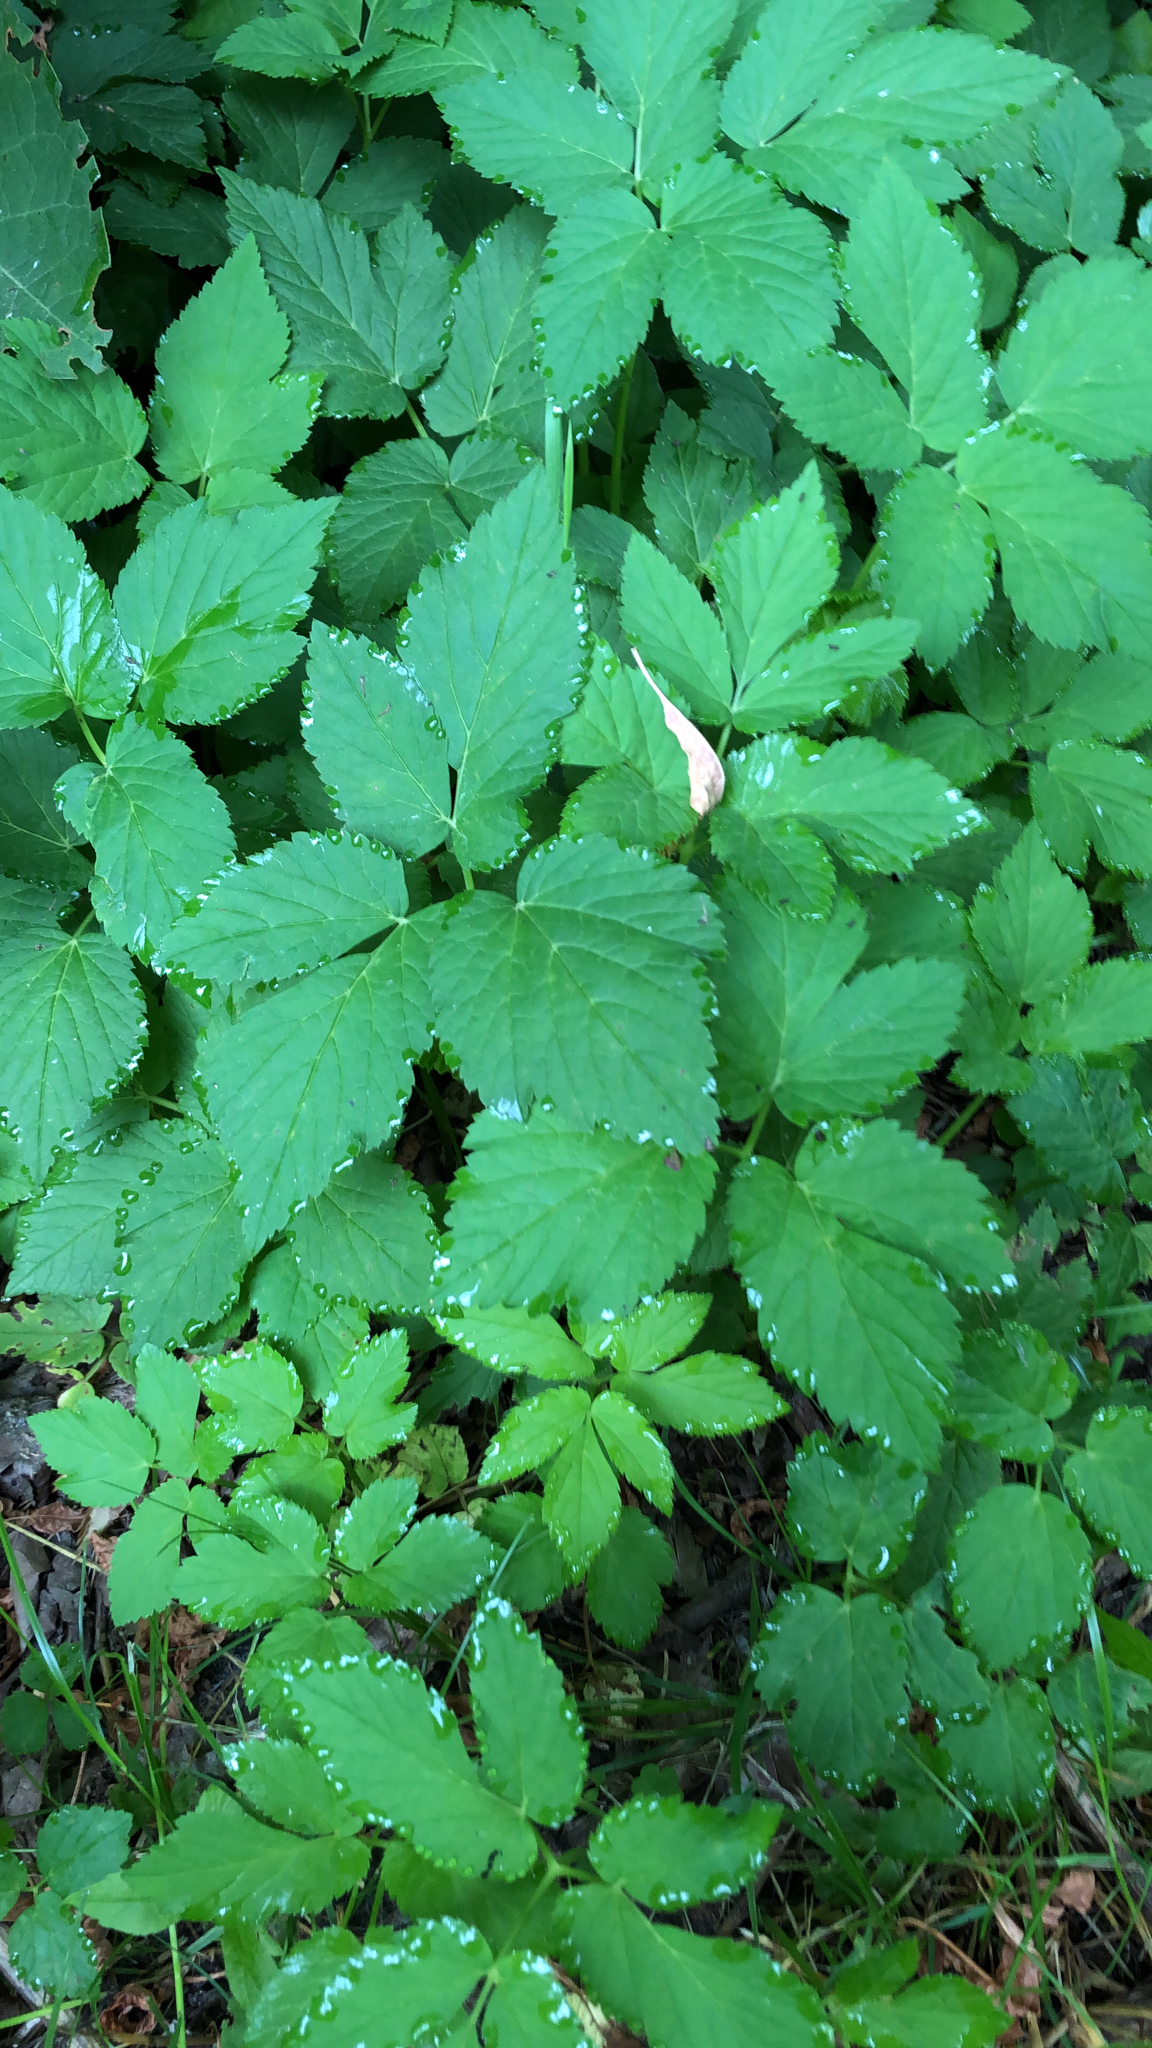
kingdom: Plantae
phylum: Tracheophyta
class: Magnoliopsida
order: Apiales
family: Apiaceae
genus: Aegopodium
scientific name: Aegopodium podagraria
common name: Ground-elder
